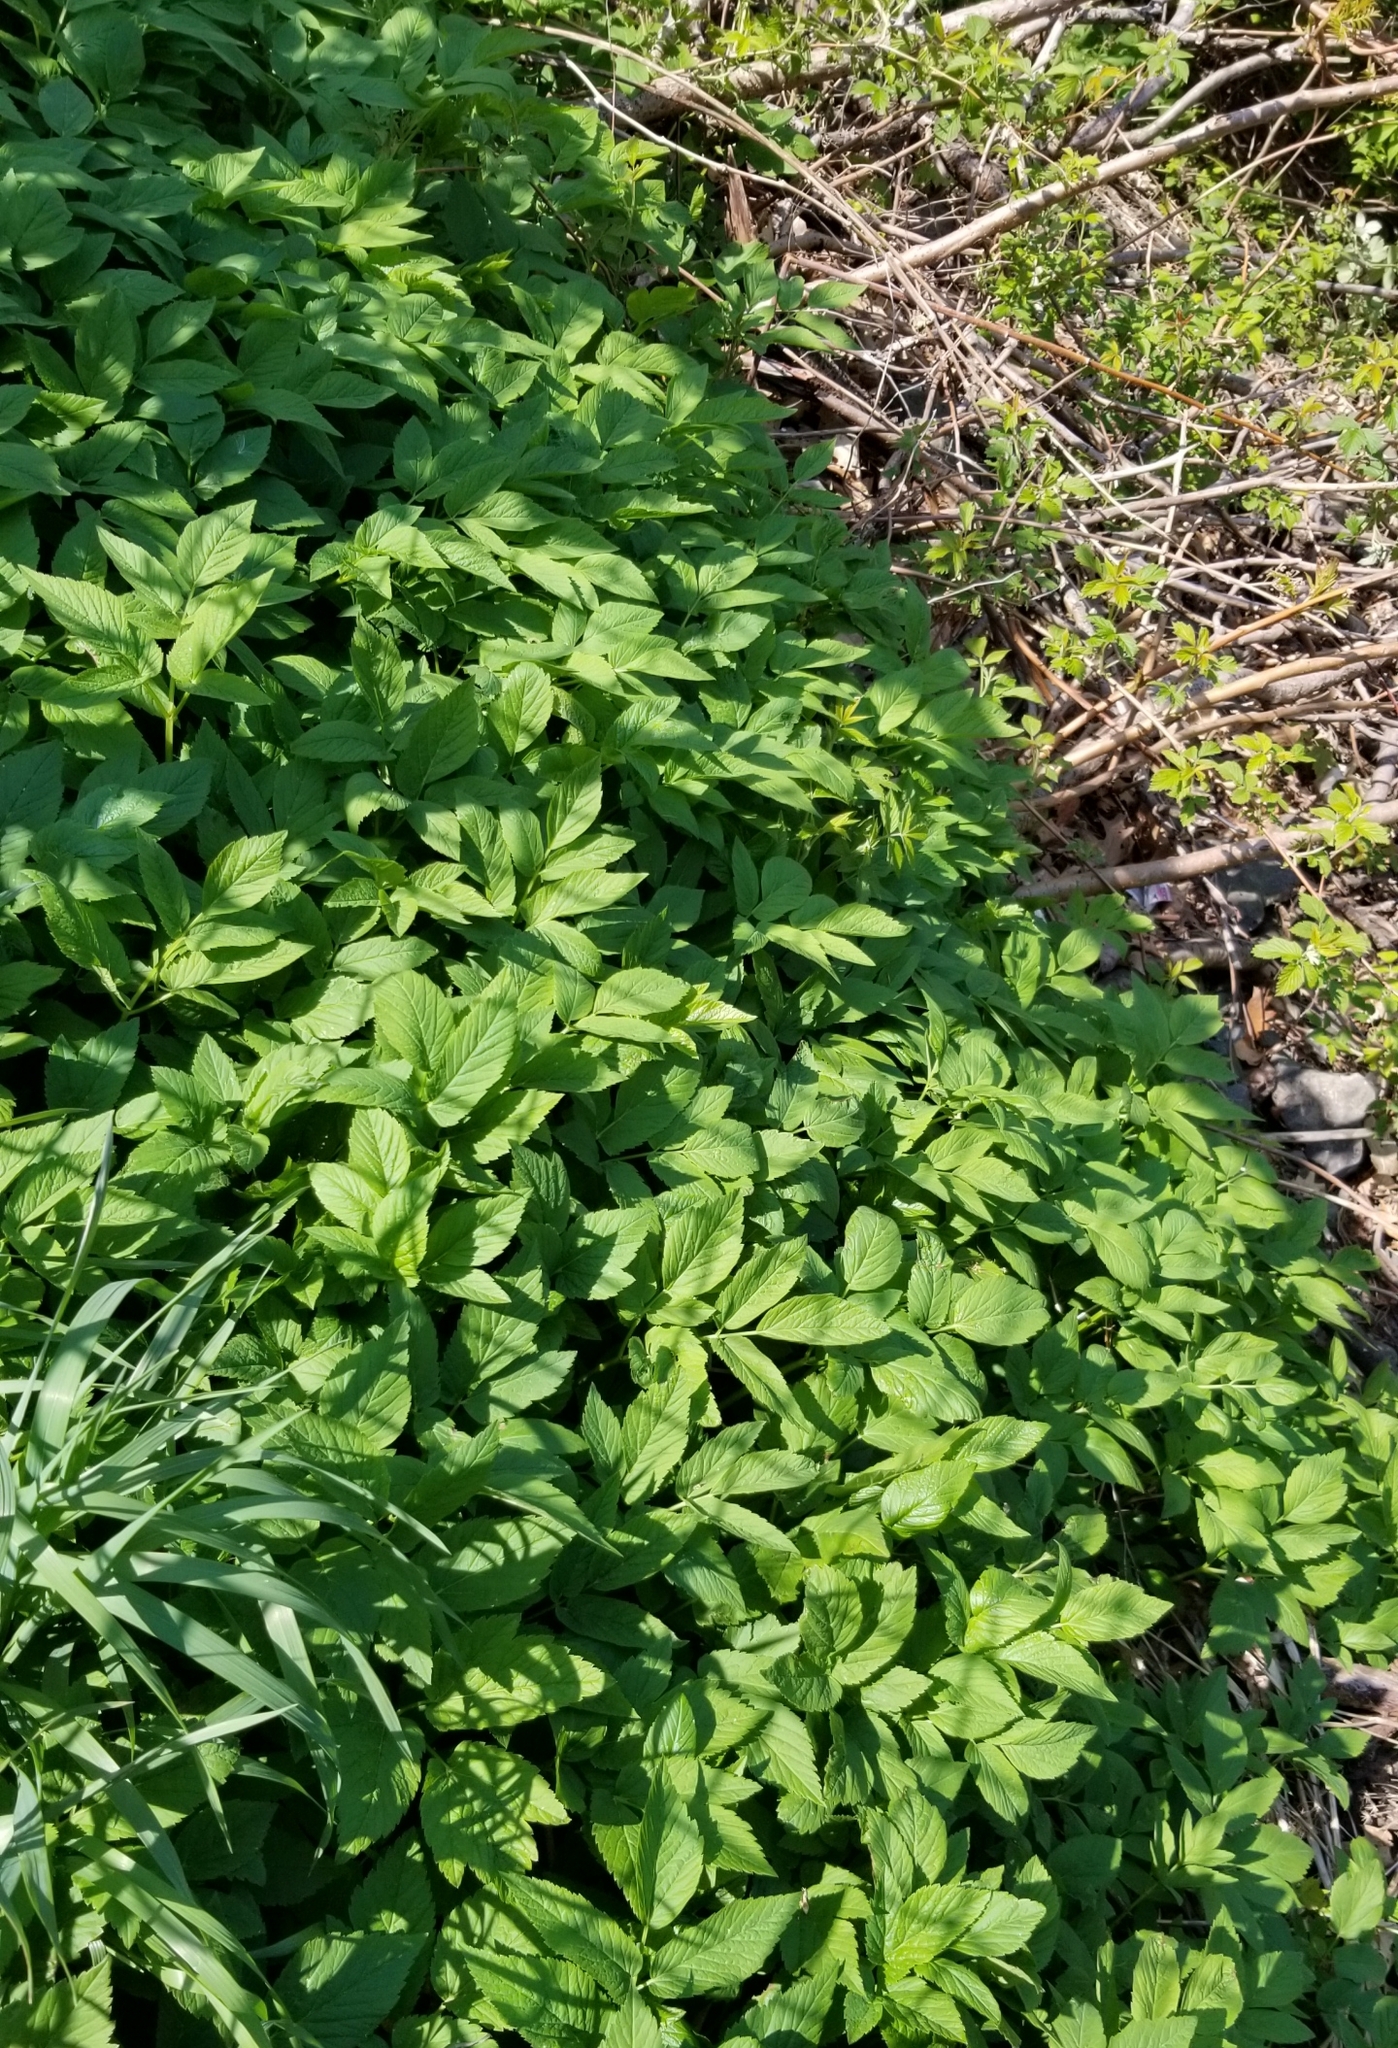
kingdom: Plantae
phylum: Tracheophyta
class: Magnoliopsida
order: Apiales
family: Apiaceae
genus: Aegopodium
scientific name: Aegopodium podagraria
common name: Ground-elder
